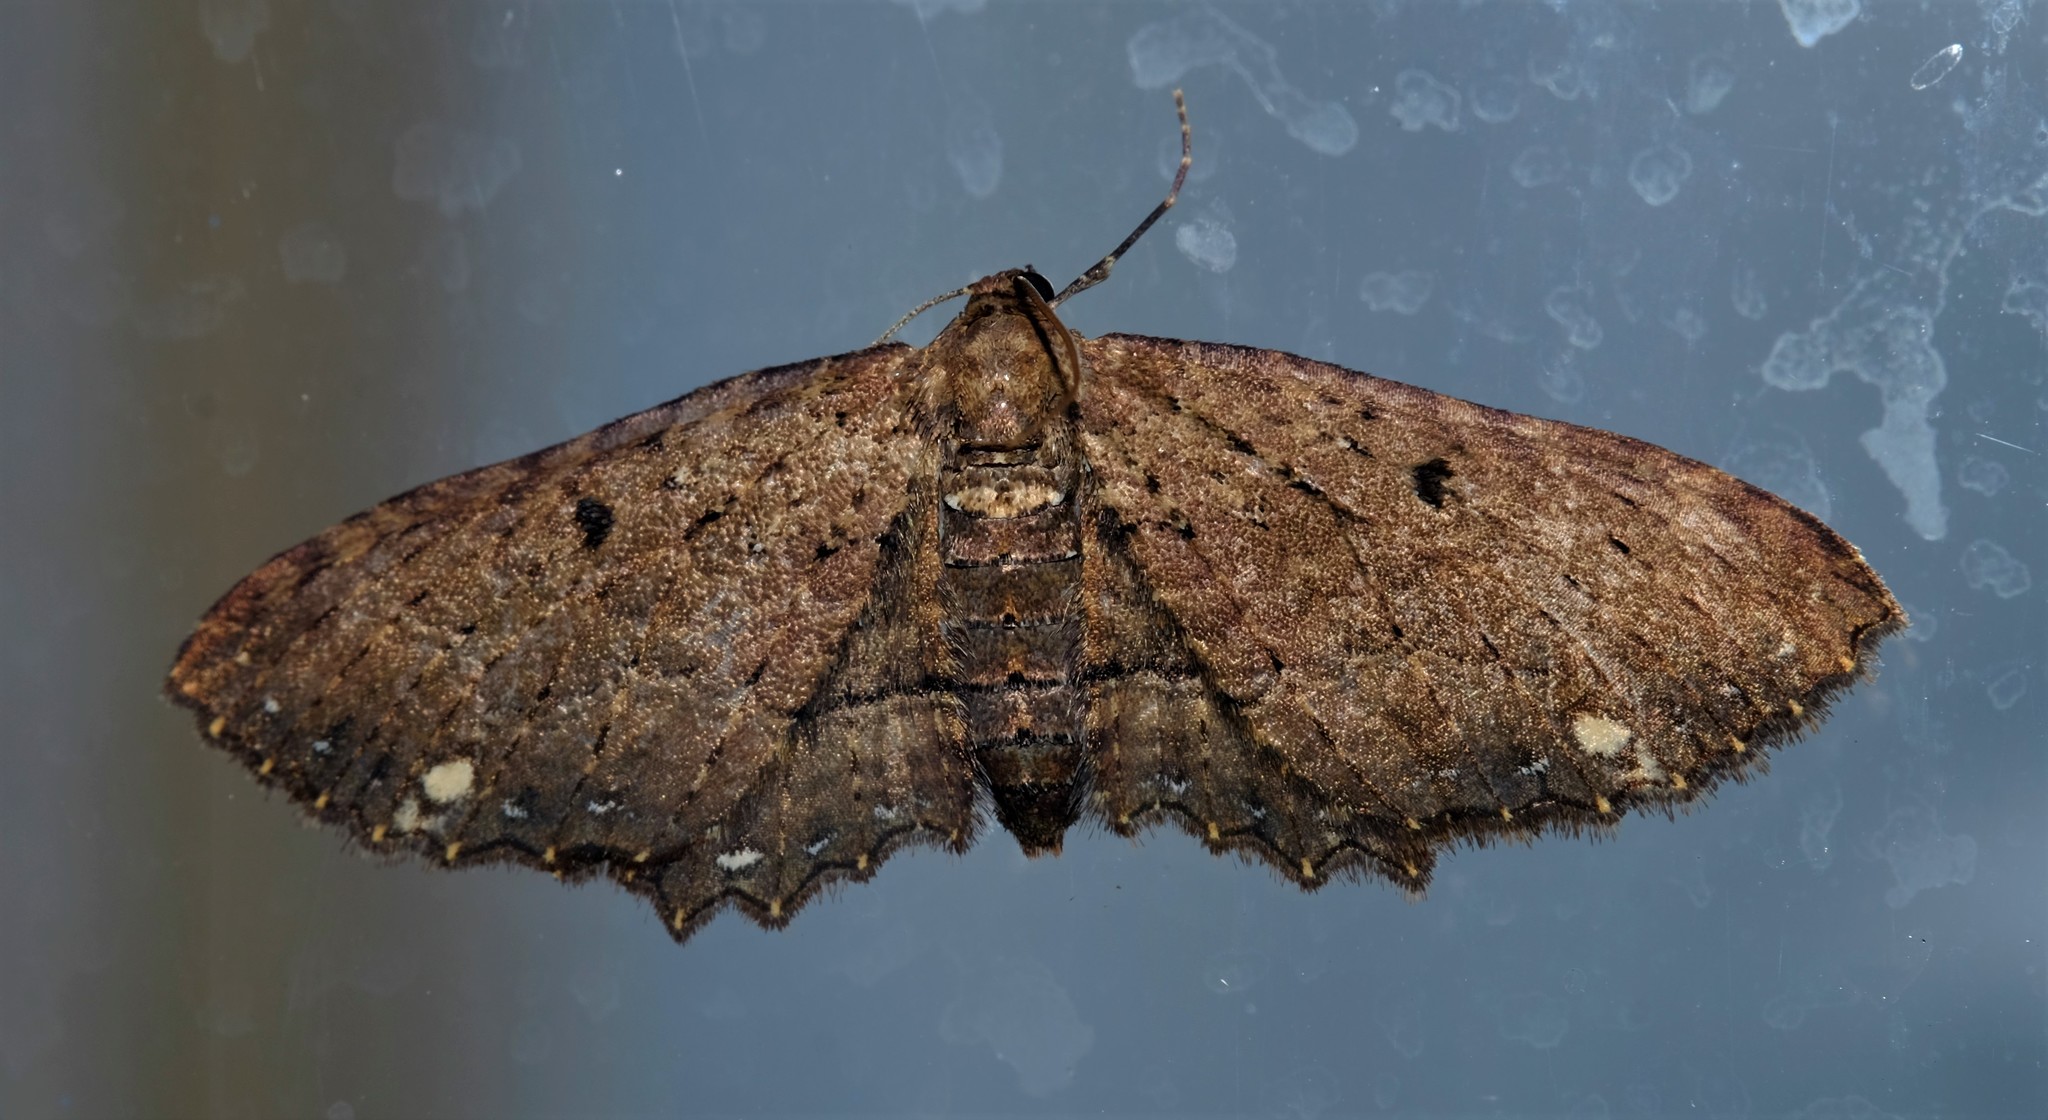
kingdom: Animalia
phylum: Arthropoda
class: Insecta
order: Lepidoptera
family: Geometridae
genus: Eccymatoge
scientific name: Eccymatoge callizona
